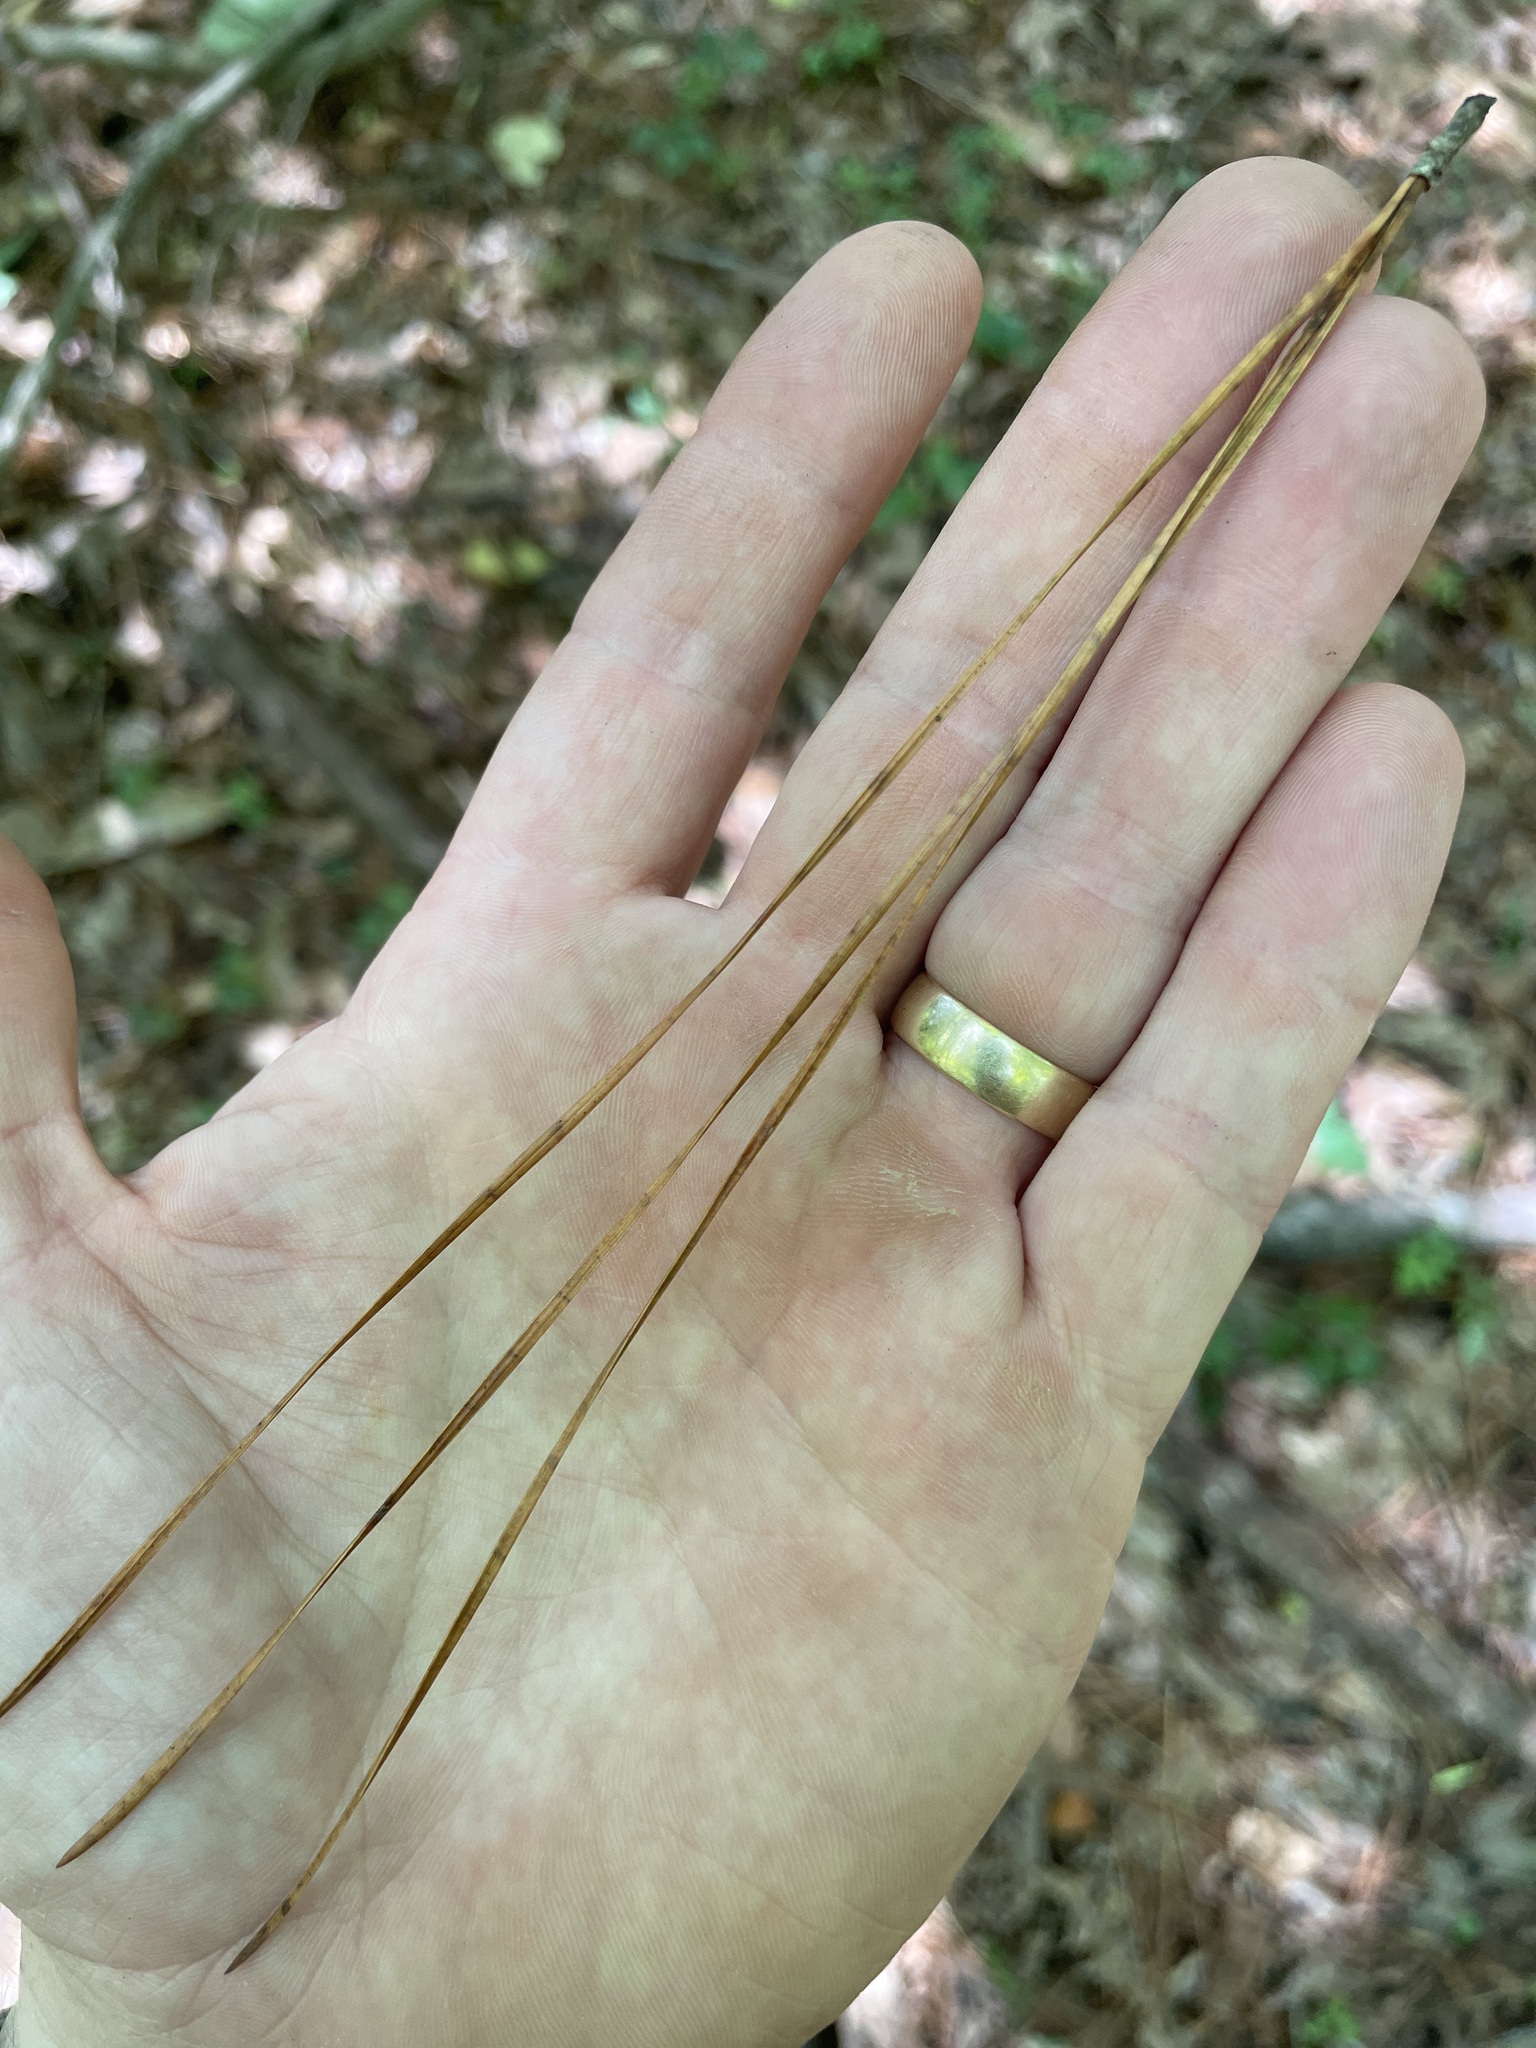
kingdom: Plantae
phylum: Tracheophyta
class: Pinopsida
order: Pinales
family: Pinaceae
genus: Pinus
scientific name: Pinus taeda
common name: Loblolly pine
